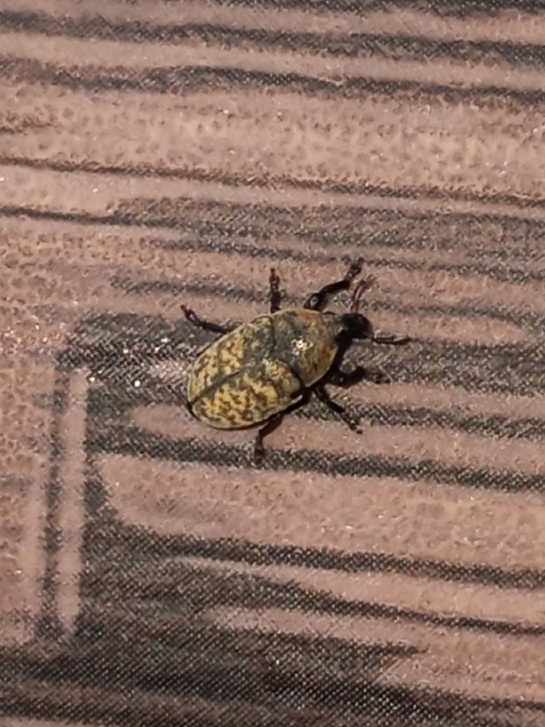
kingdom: Animalia
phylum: Arthropoda
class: Insecta
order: Coleoptera
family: Curculionidae
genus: Larinus
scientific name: Larinus obtusus
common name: Weevil
